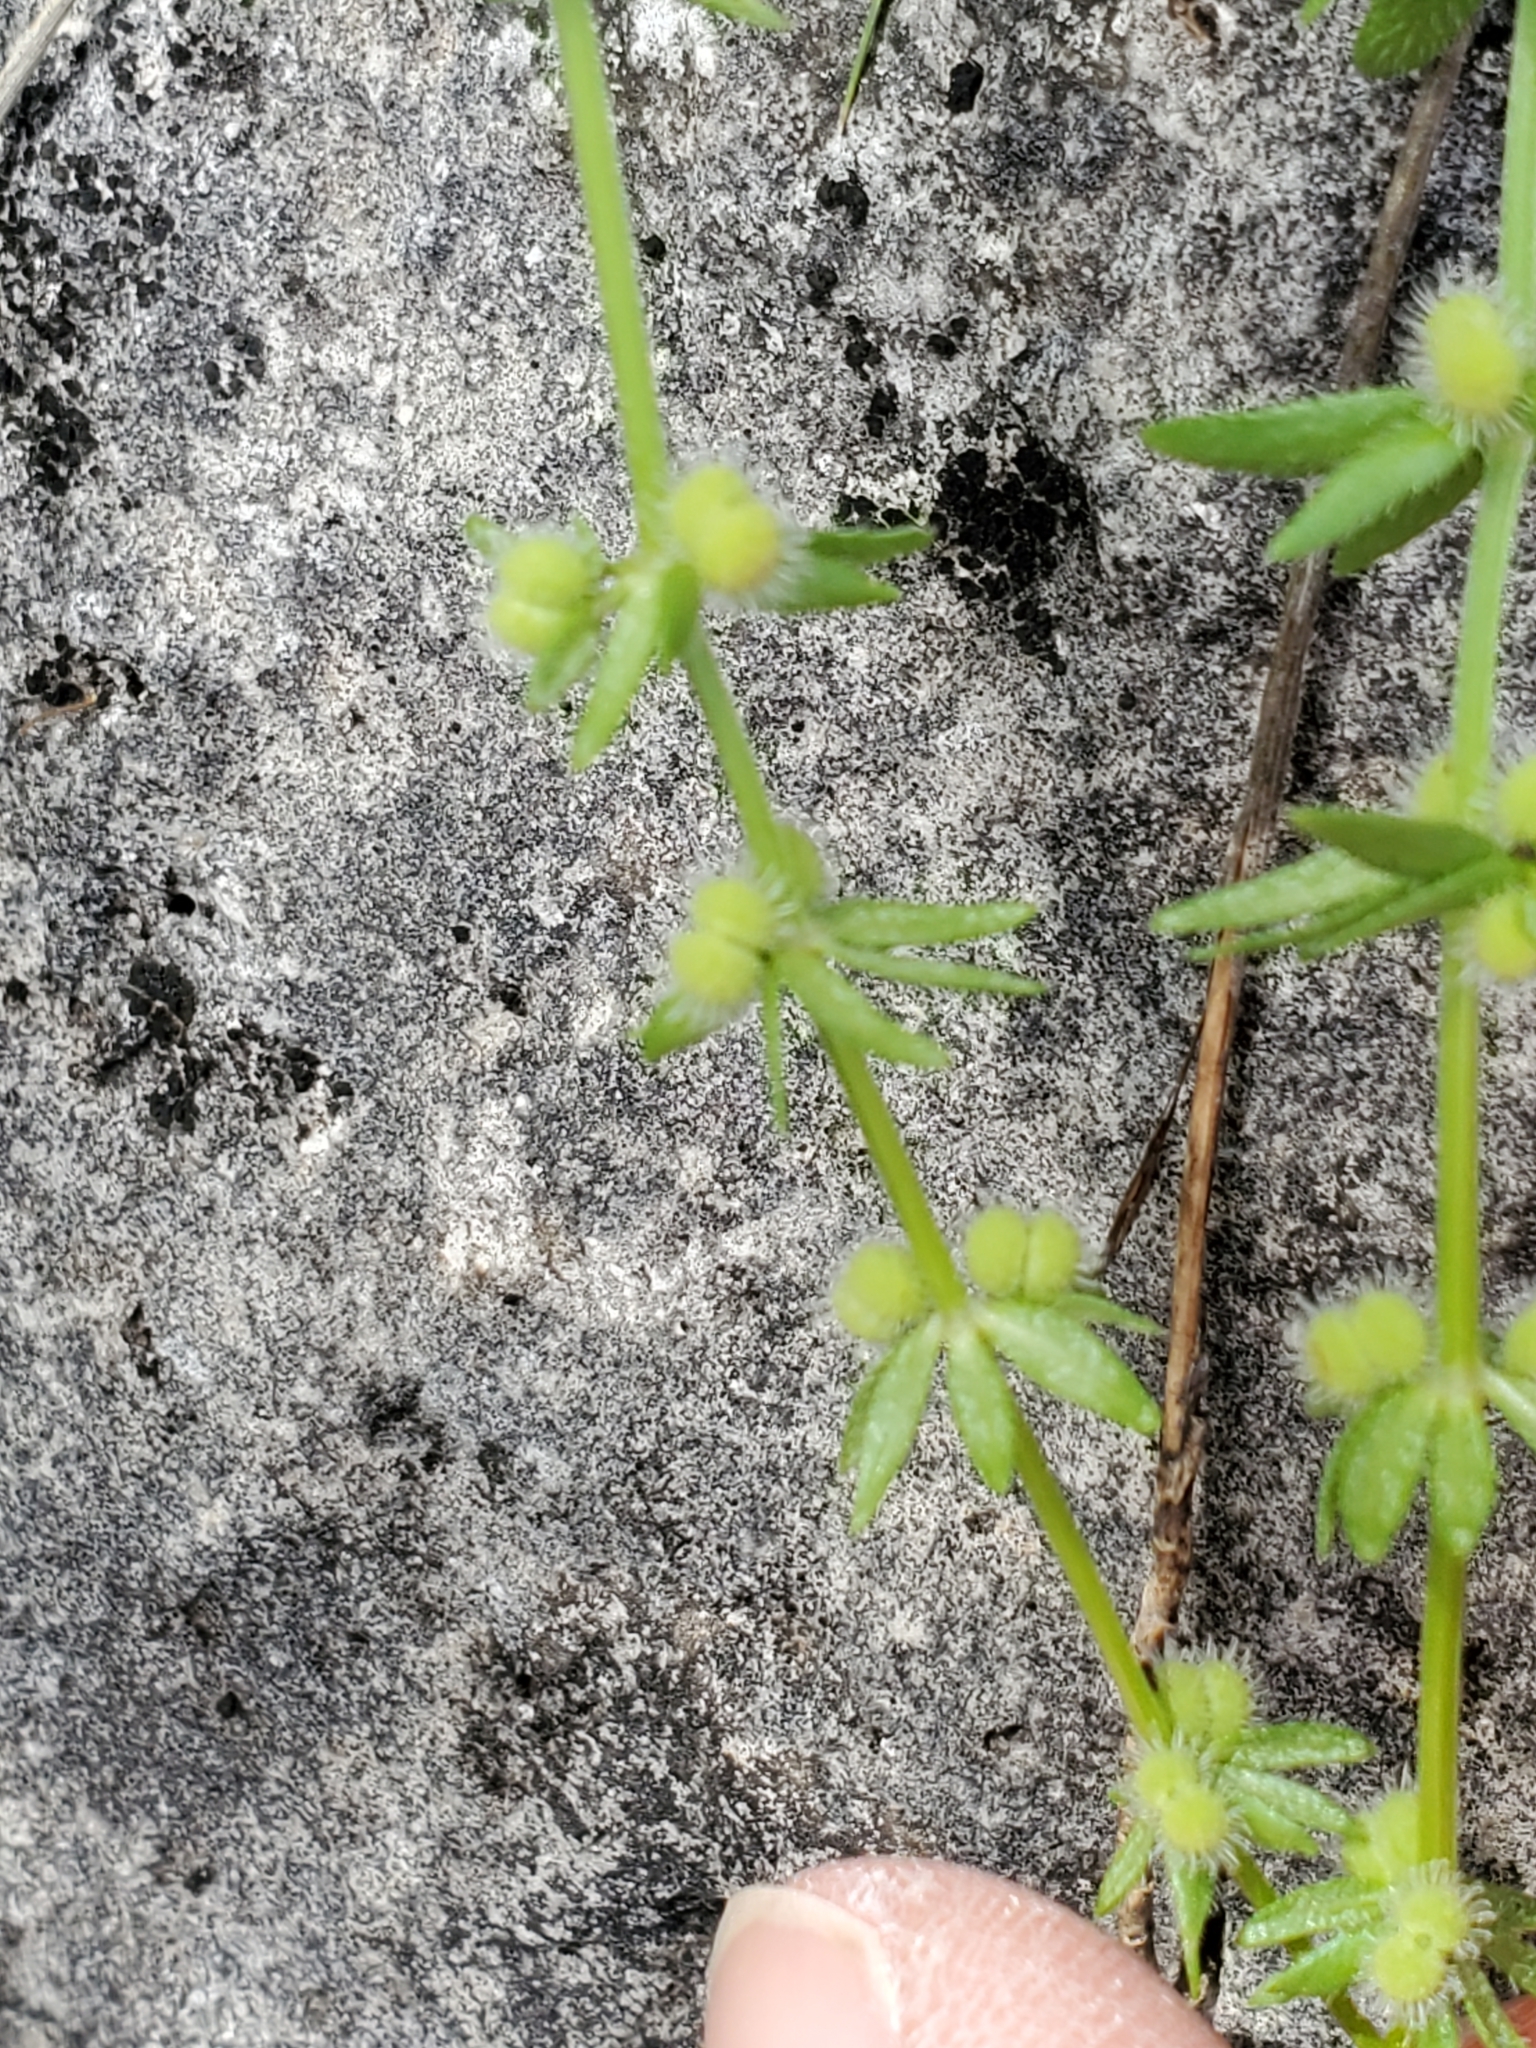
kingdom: Plantae
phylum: Tracheophyta
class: Magnoliopsida
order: Gentianales
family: Rubiaceae
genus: Galium
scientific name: Galium virgatum
